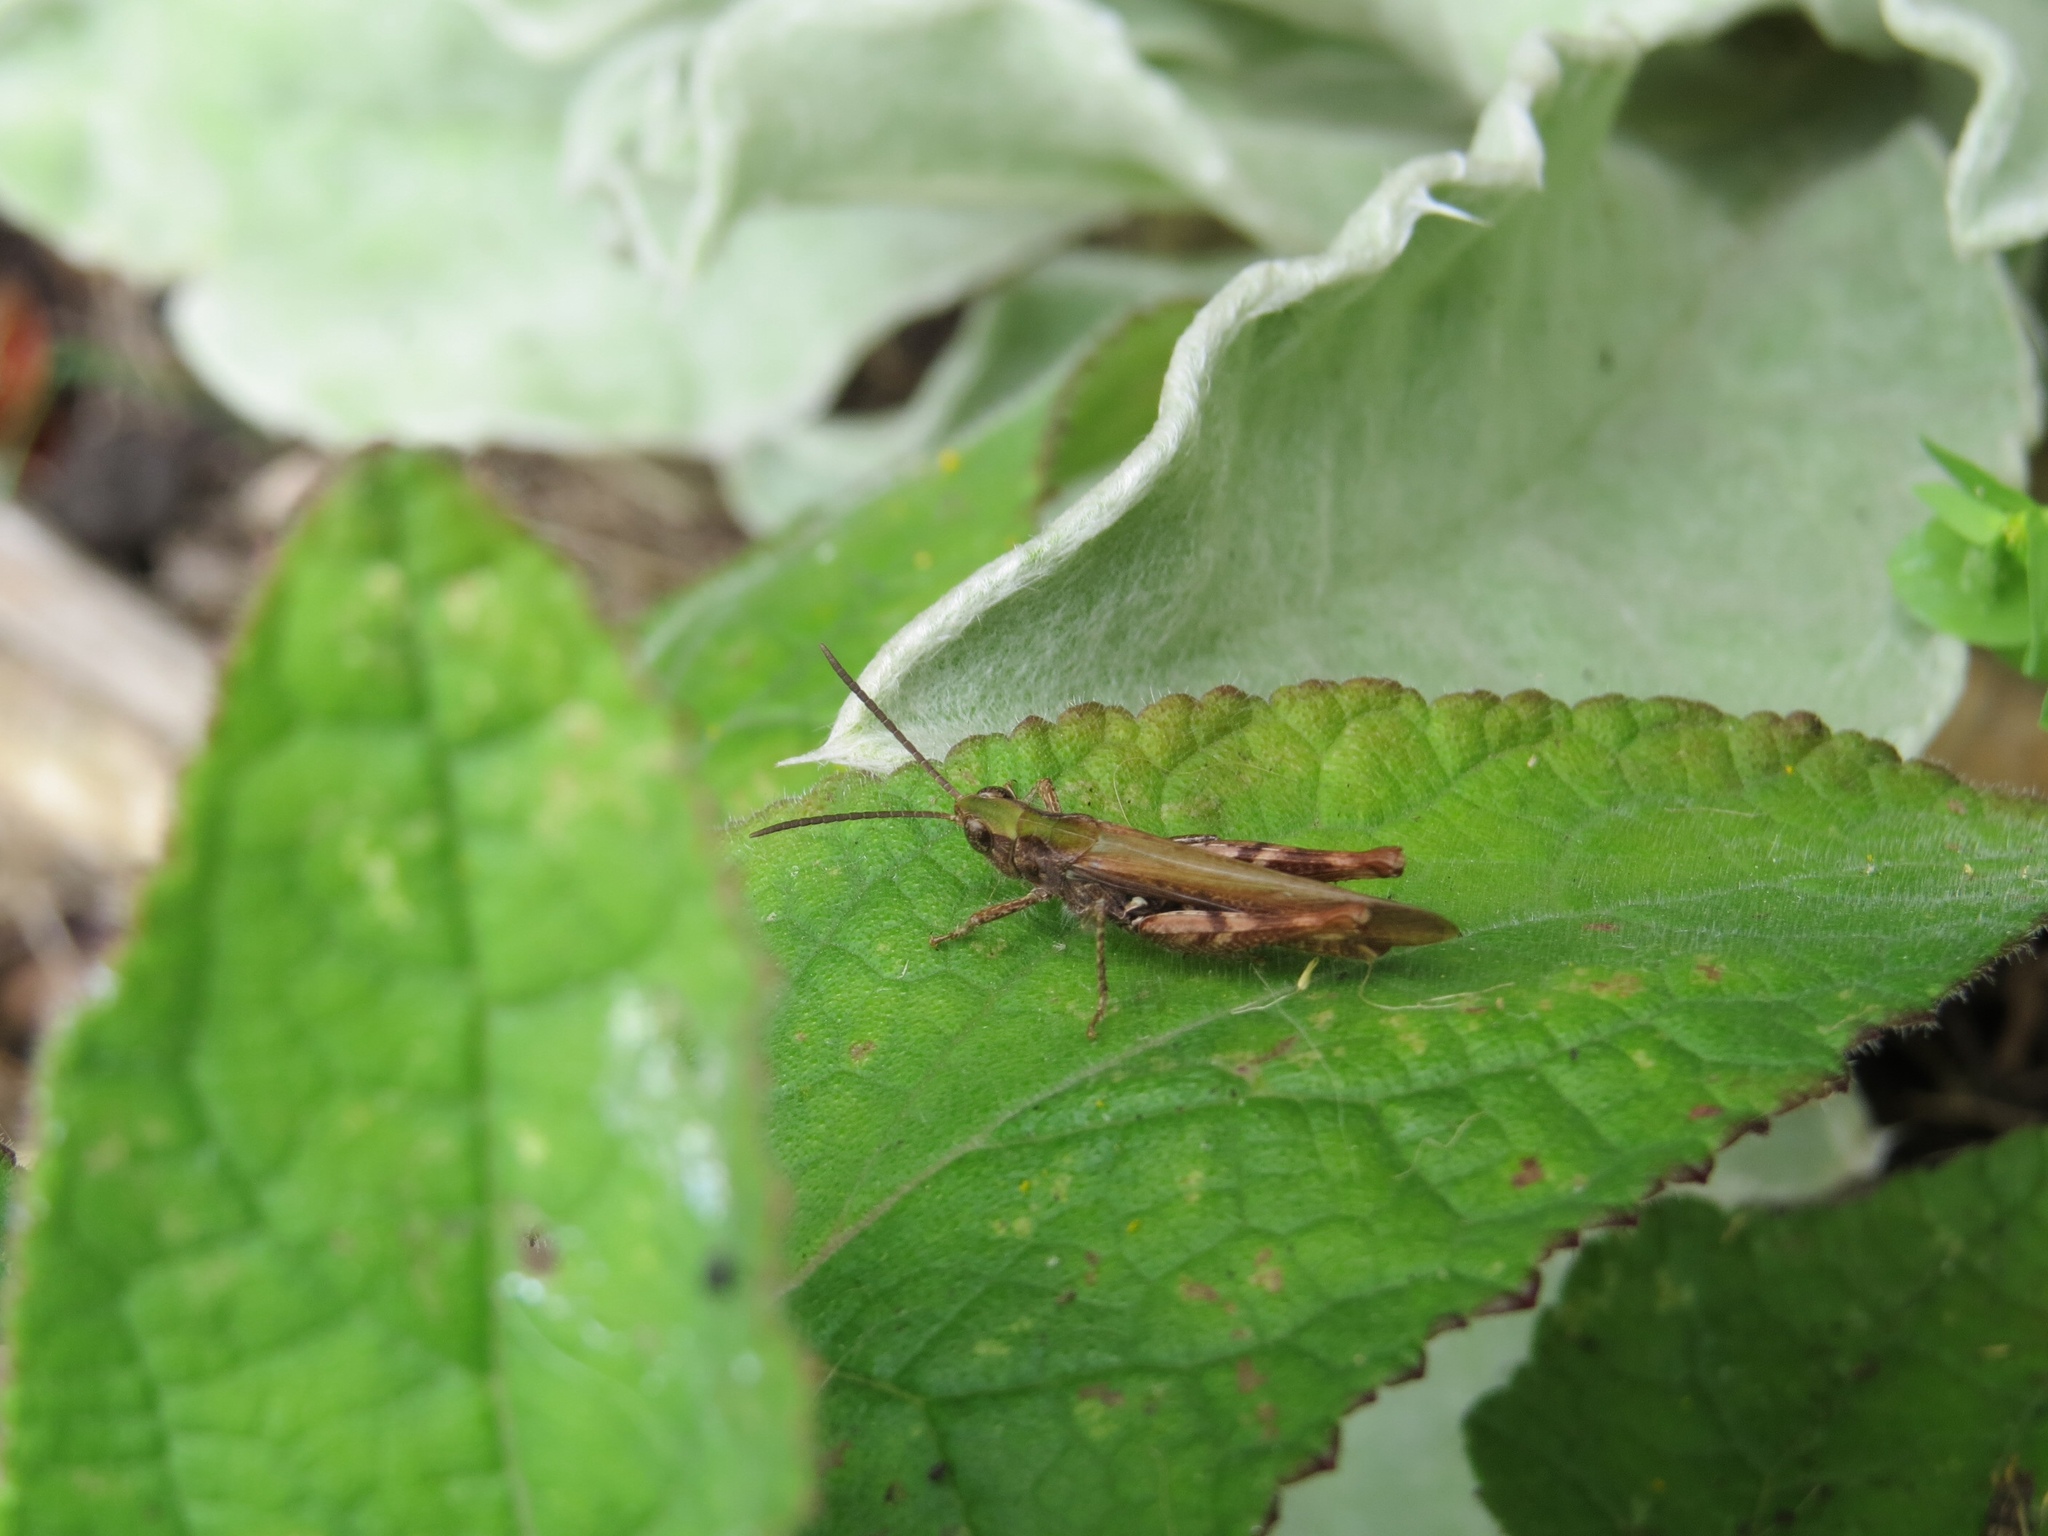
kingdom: Animalia
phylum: Arthropoda
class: Insecta
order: Orthoptera
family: Acrididae
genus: Chorthippus
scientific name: Chorthippus brunneus
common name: Field grasshopper
